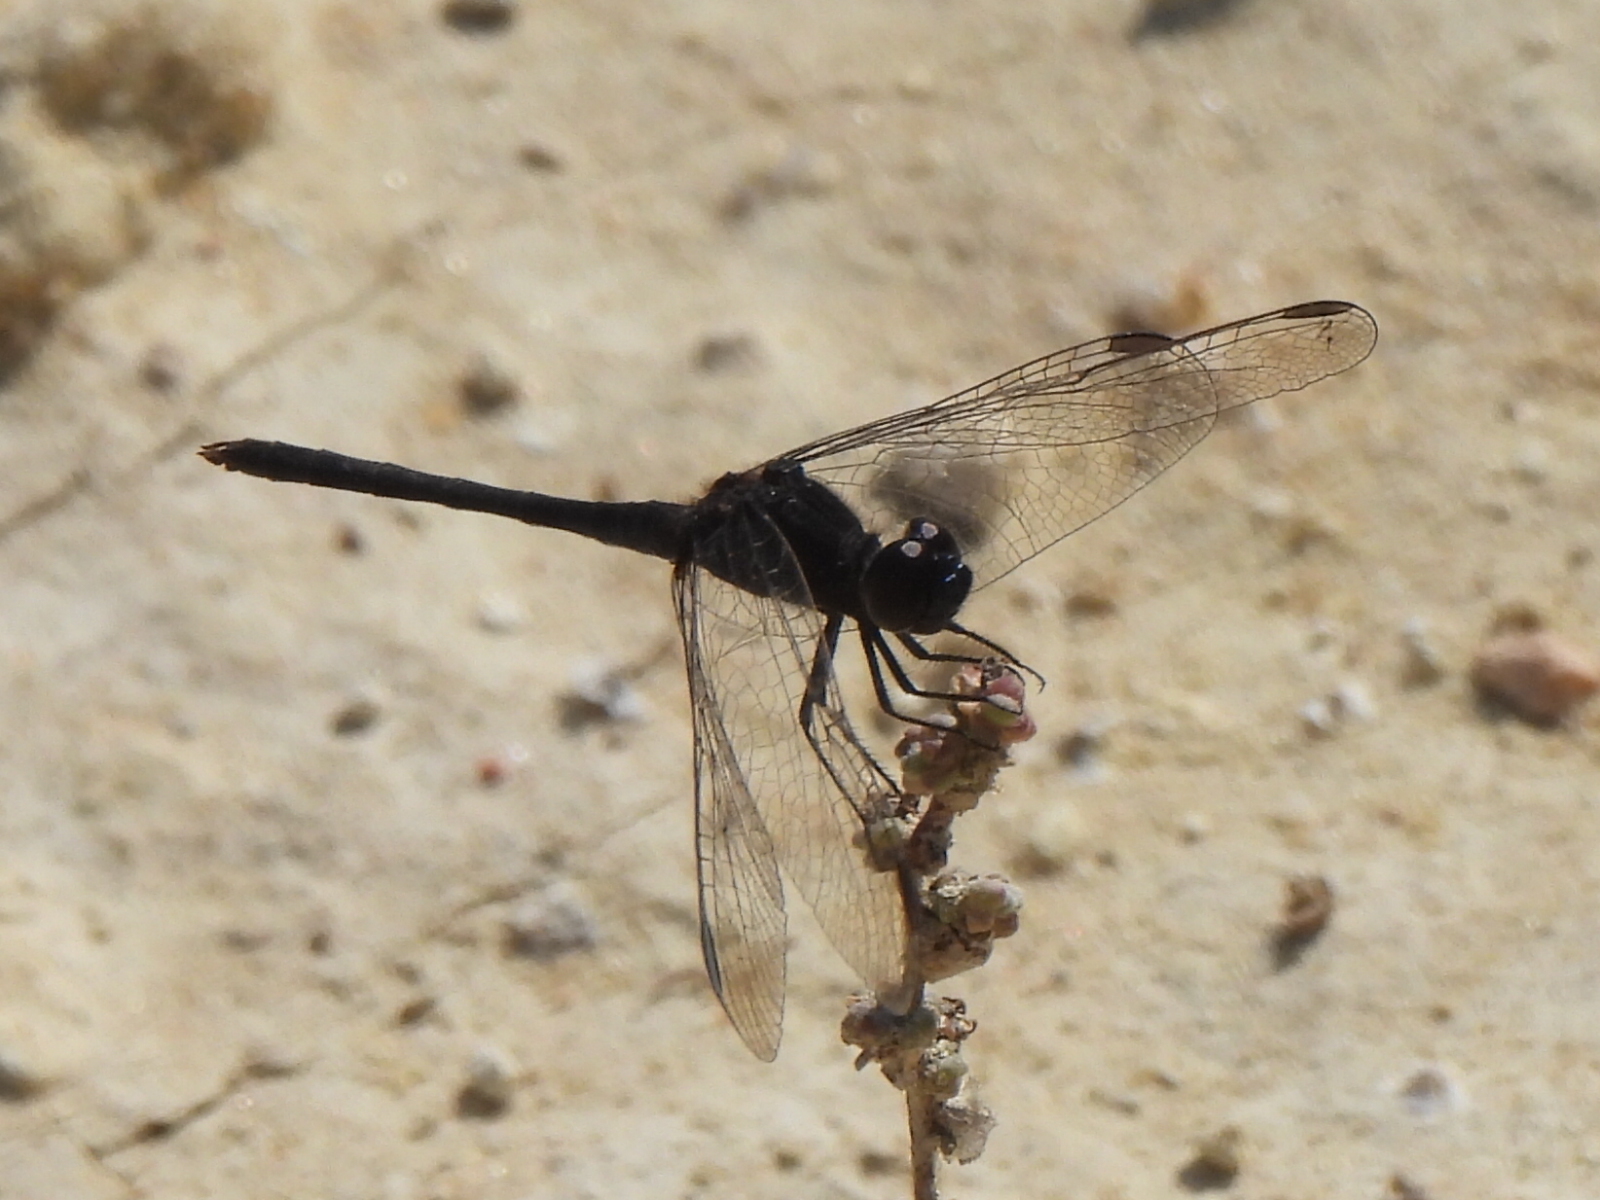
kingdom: Animalia
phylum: Arthropoda
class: Insecta
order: Odonata
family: Libellulidae
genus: Diplacodes
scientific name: Diplacodes lefebvrii
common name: Black percher
